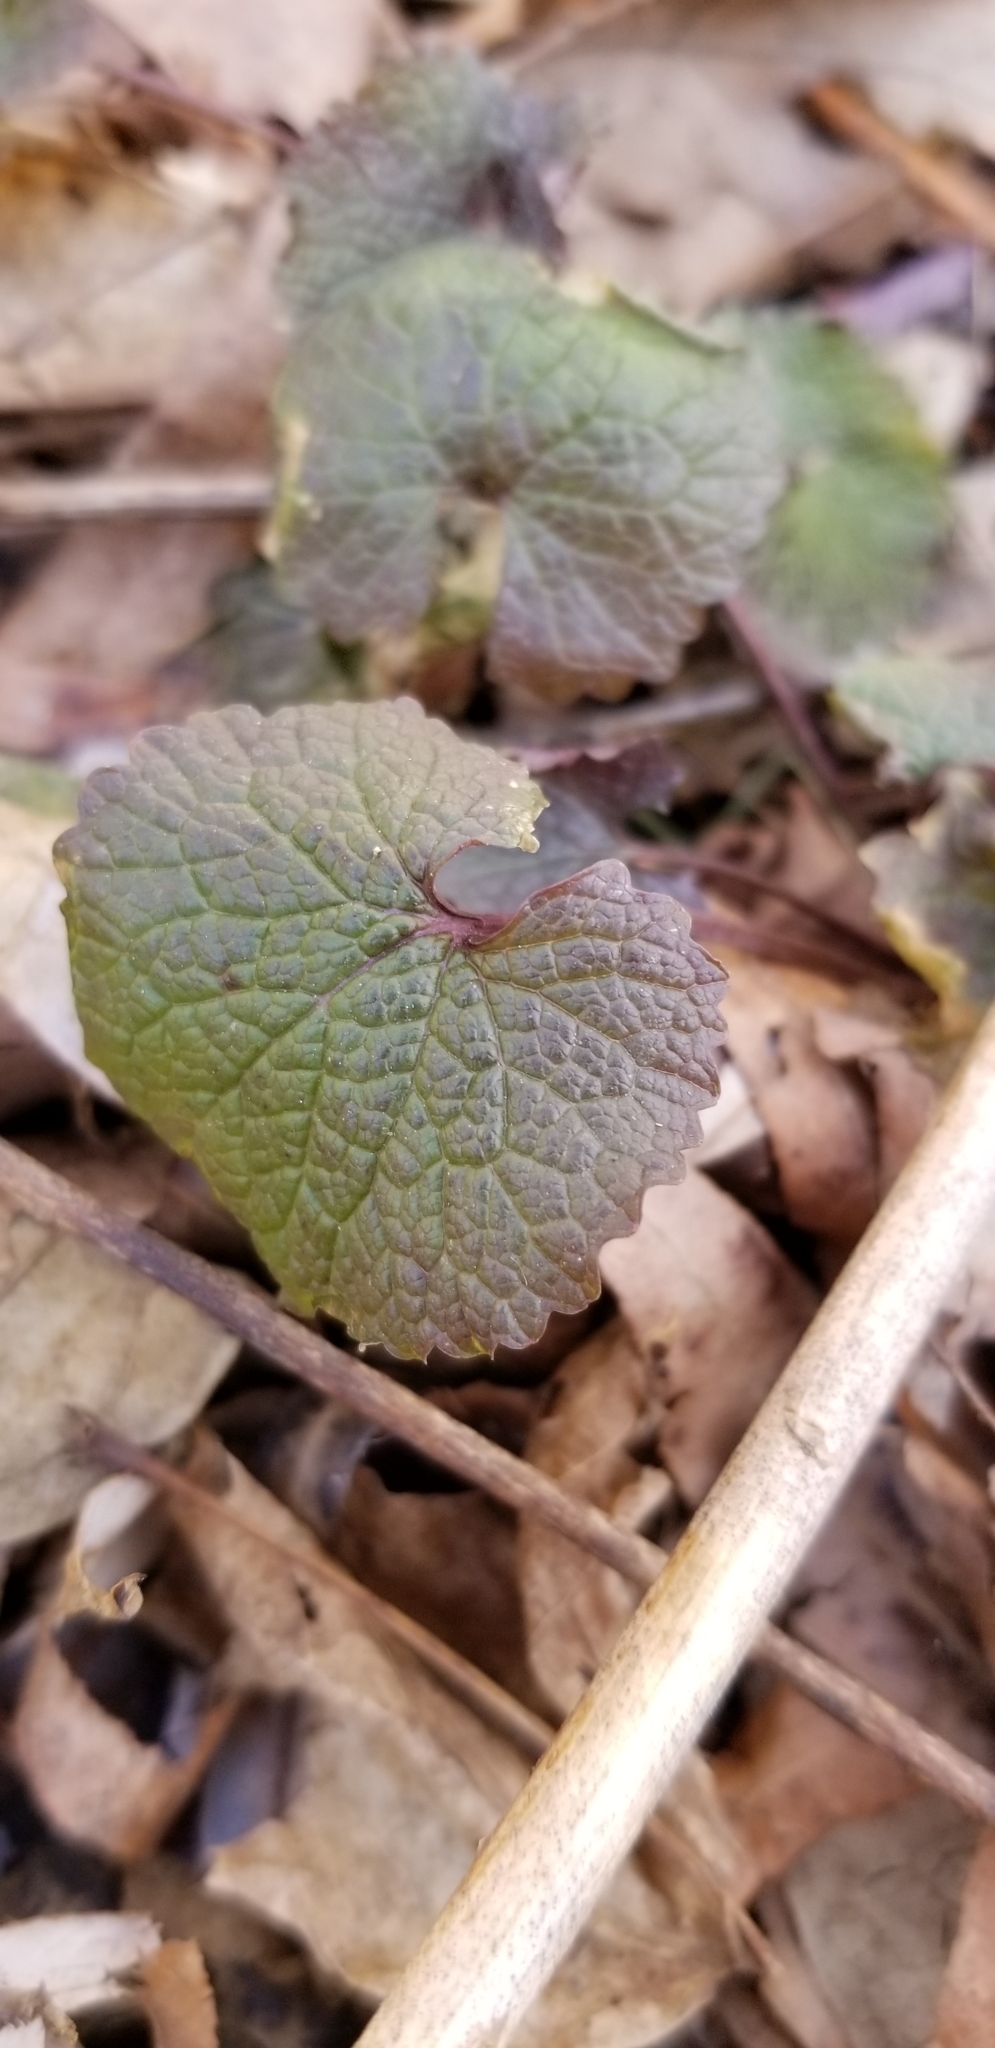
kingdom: Plantae
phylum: Tracheophyta
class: Magnoliopsida
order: Brassicales
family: Brassicaceae
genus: Alliaria
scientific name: Alliaria petiolata
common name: Garlic mustard
